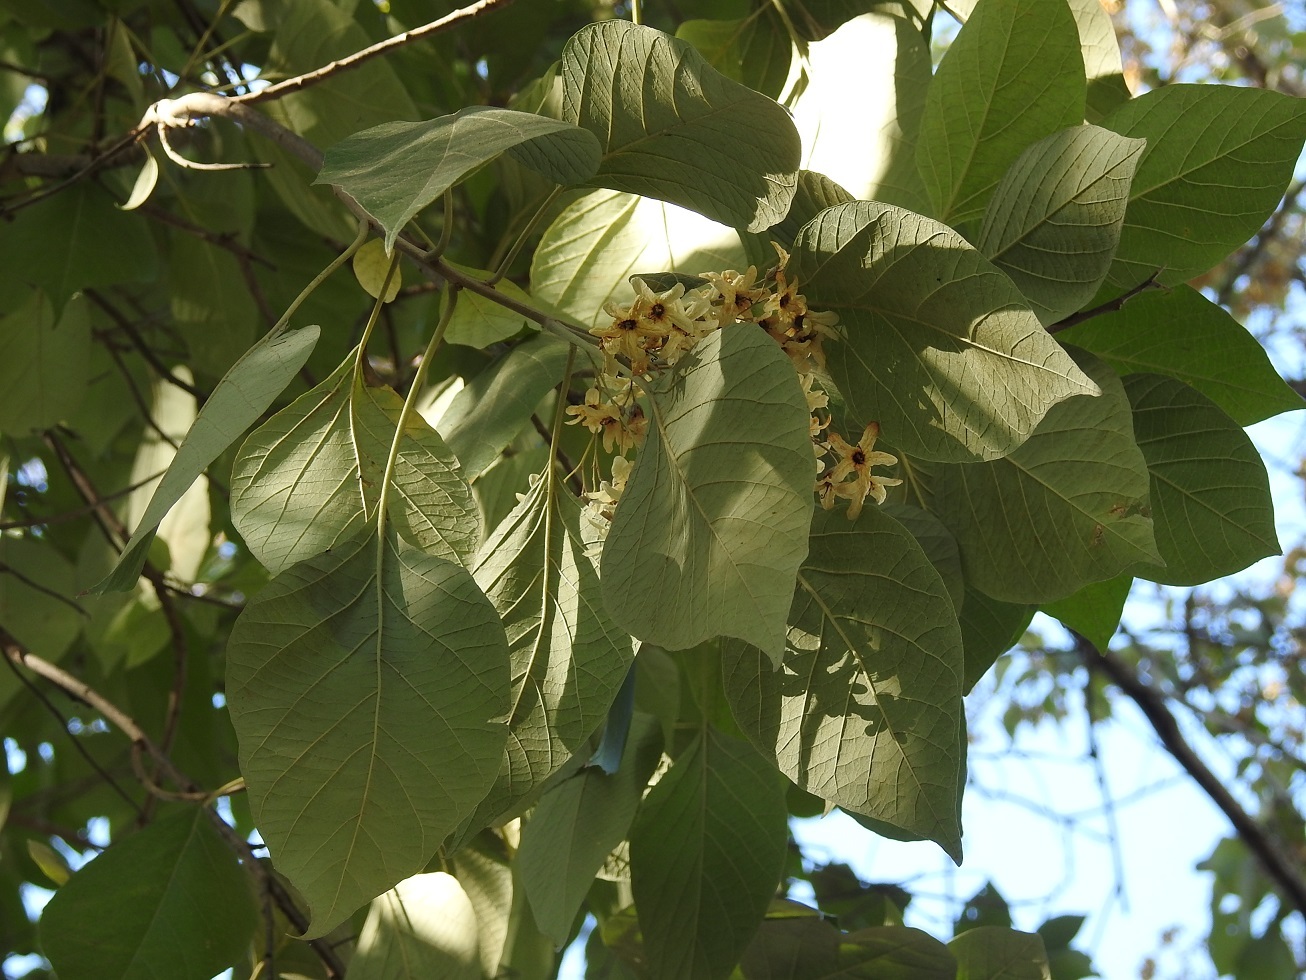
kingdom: Plantae
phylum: Tracheophyta
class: Magnoliopsida
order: Boraginales
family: Cordiaceae
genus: Cordia
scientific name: Cordia elaeagnoides
